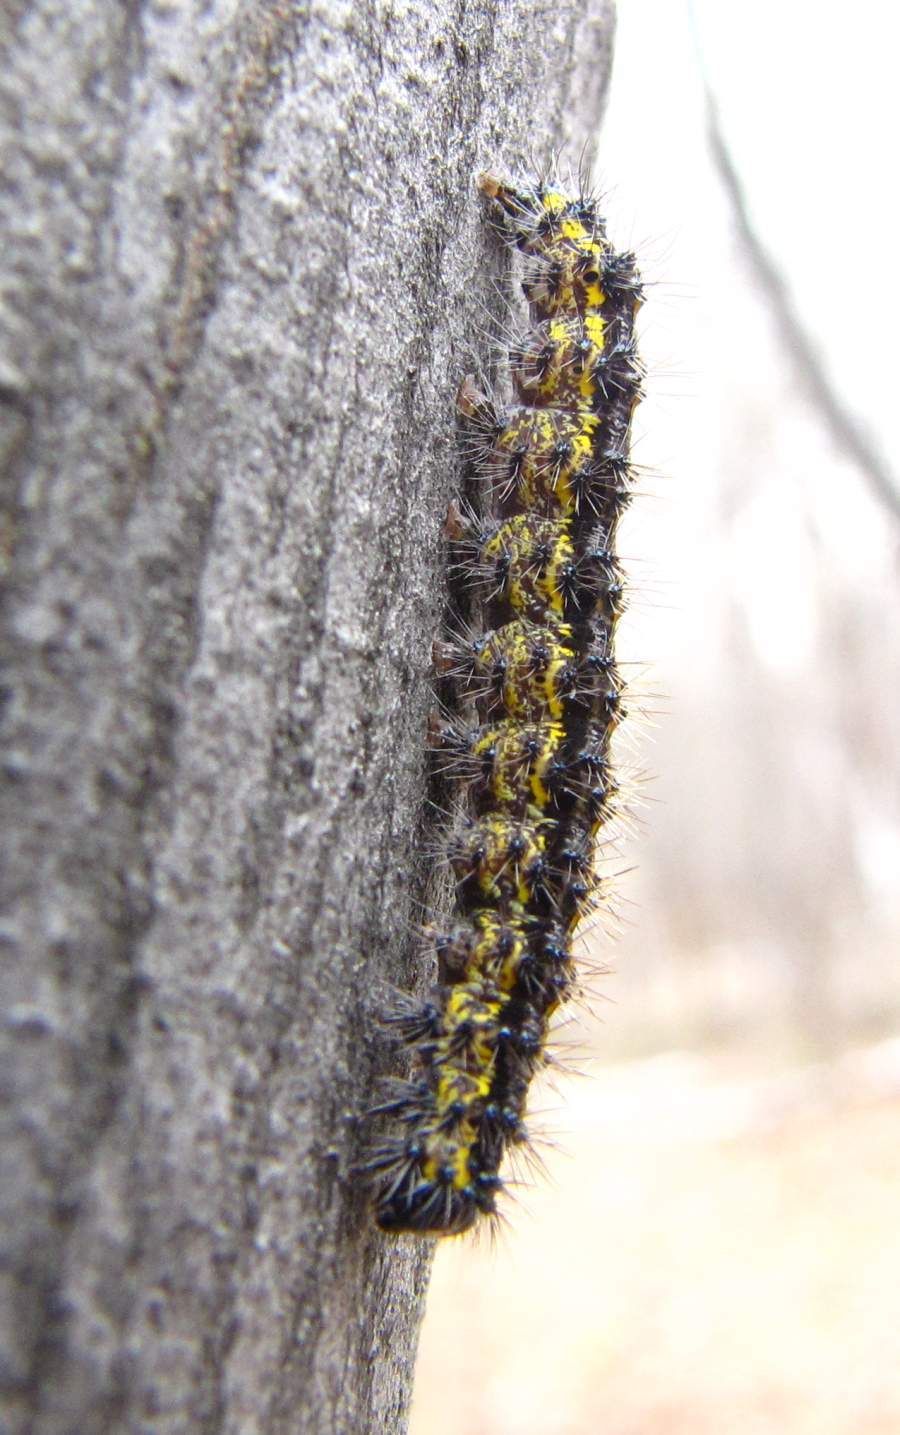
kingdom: Animalia
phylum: Arthropoda
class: Insecta
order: Lepidoptera
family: Erebidae
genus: Haploa
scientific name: Haploa lecontei
